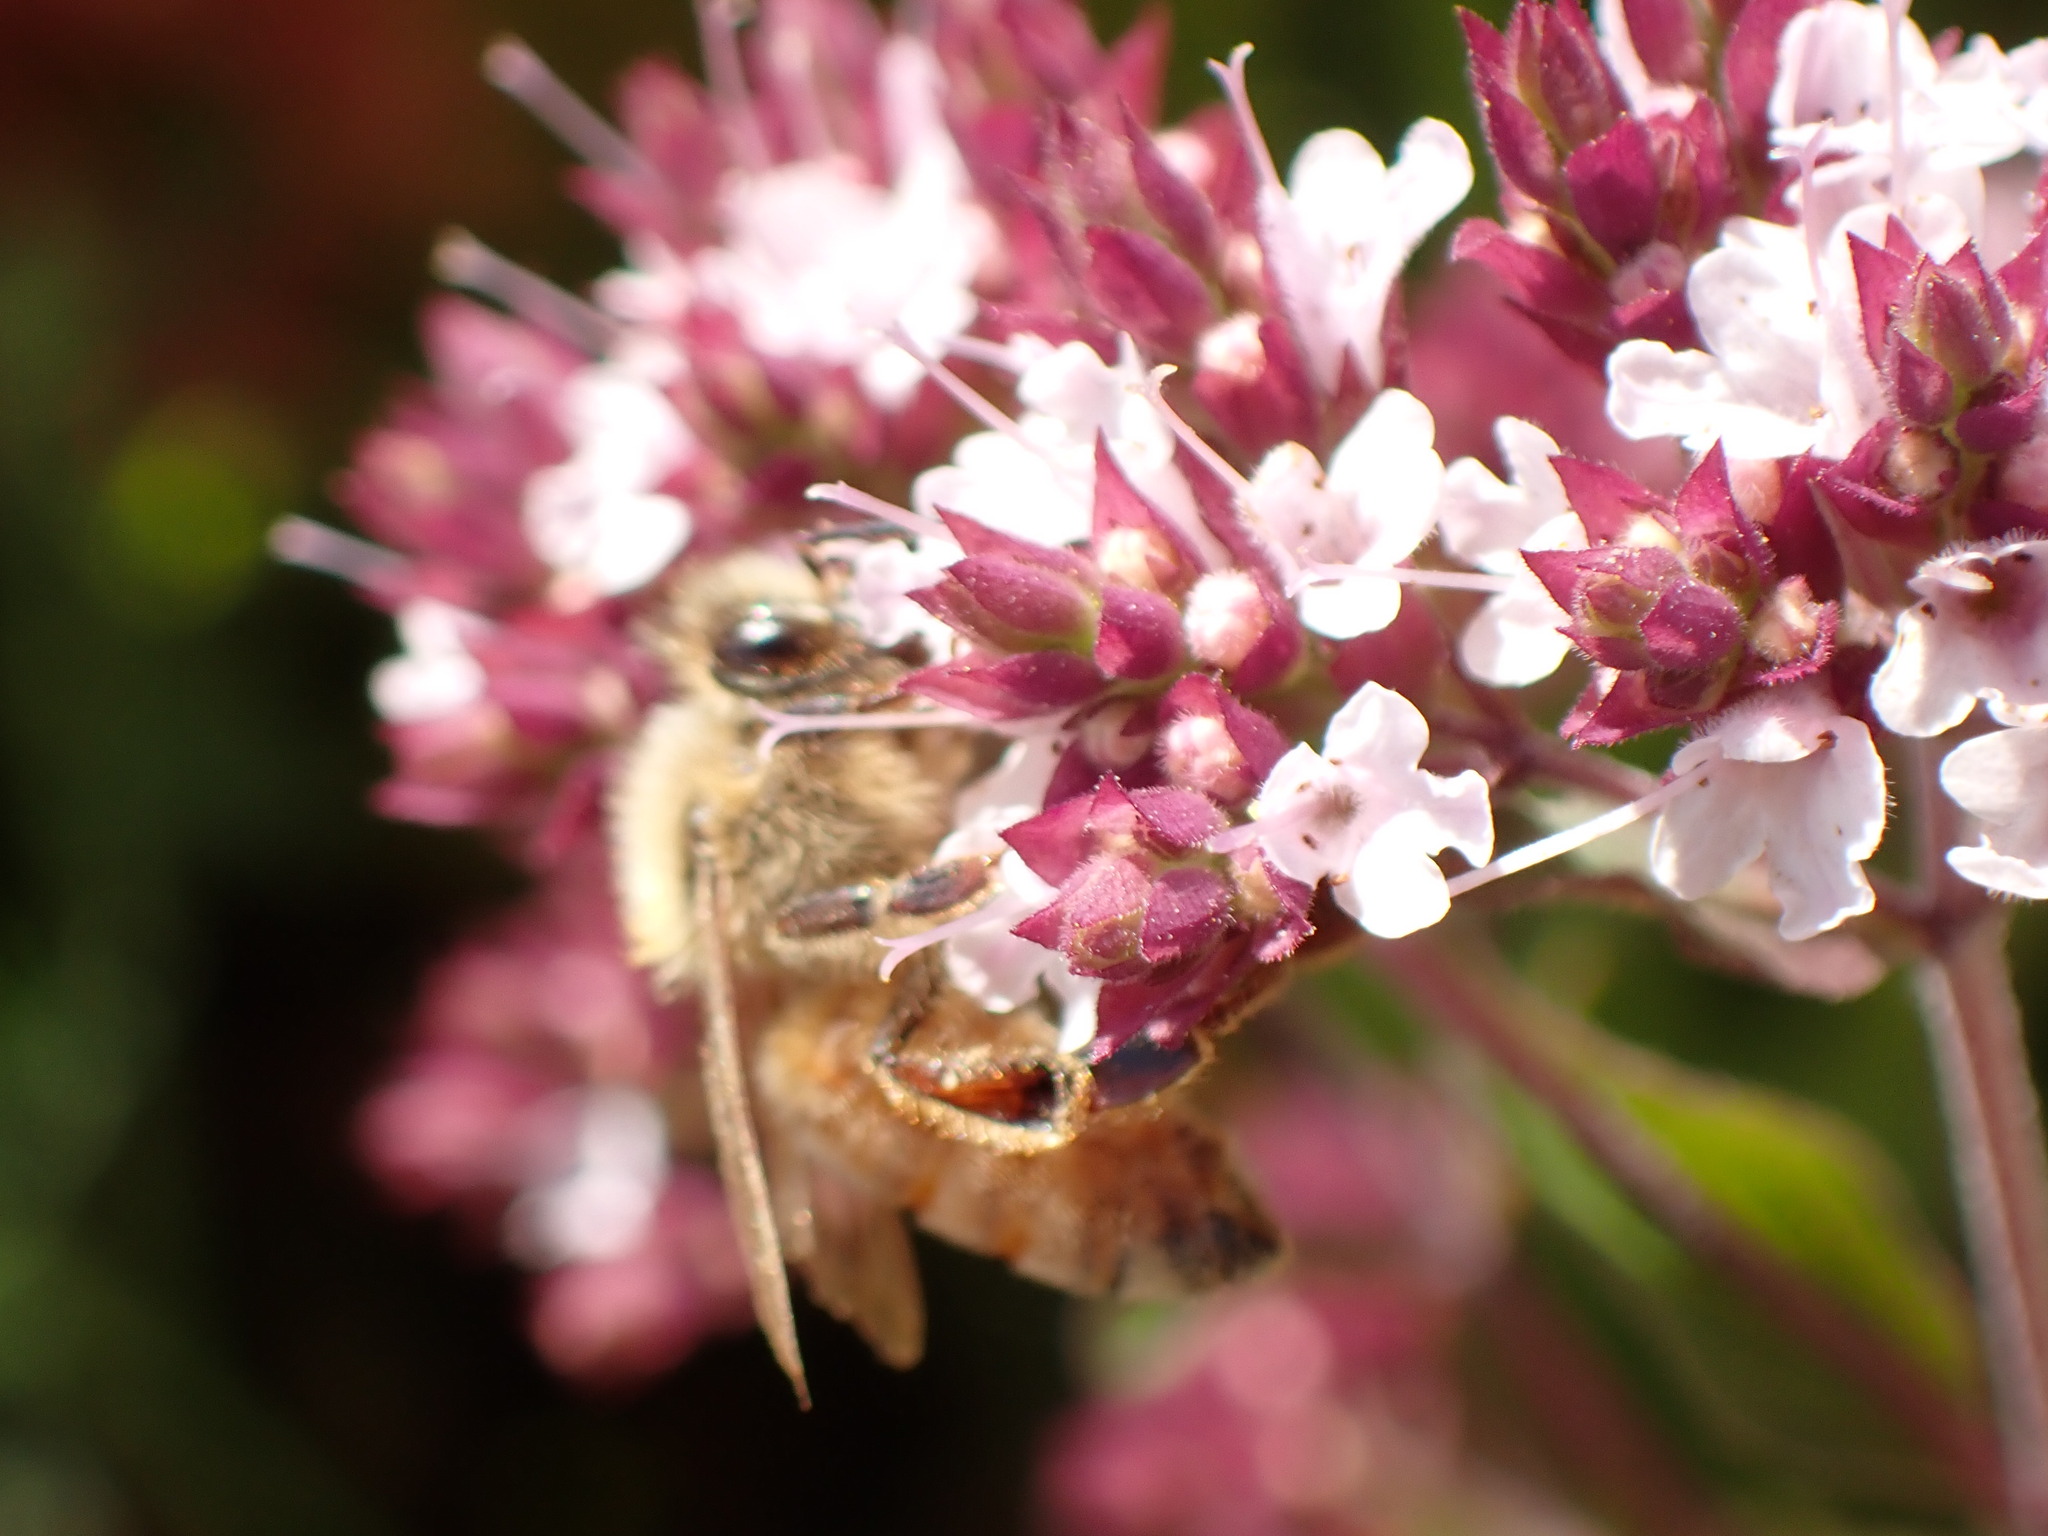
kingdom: Animalia
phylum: Arthropoda
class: Insecta
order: Hymenoptera
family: Apidae
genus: Apis
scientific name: Apis mellifera
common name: Honey bee
